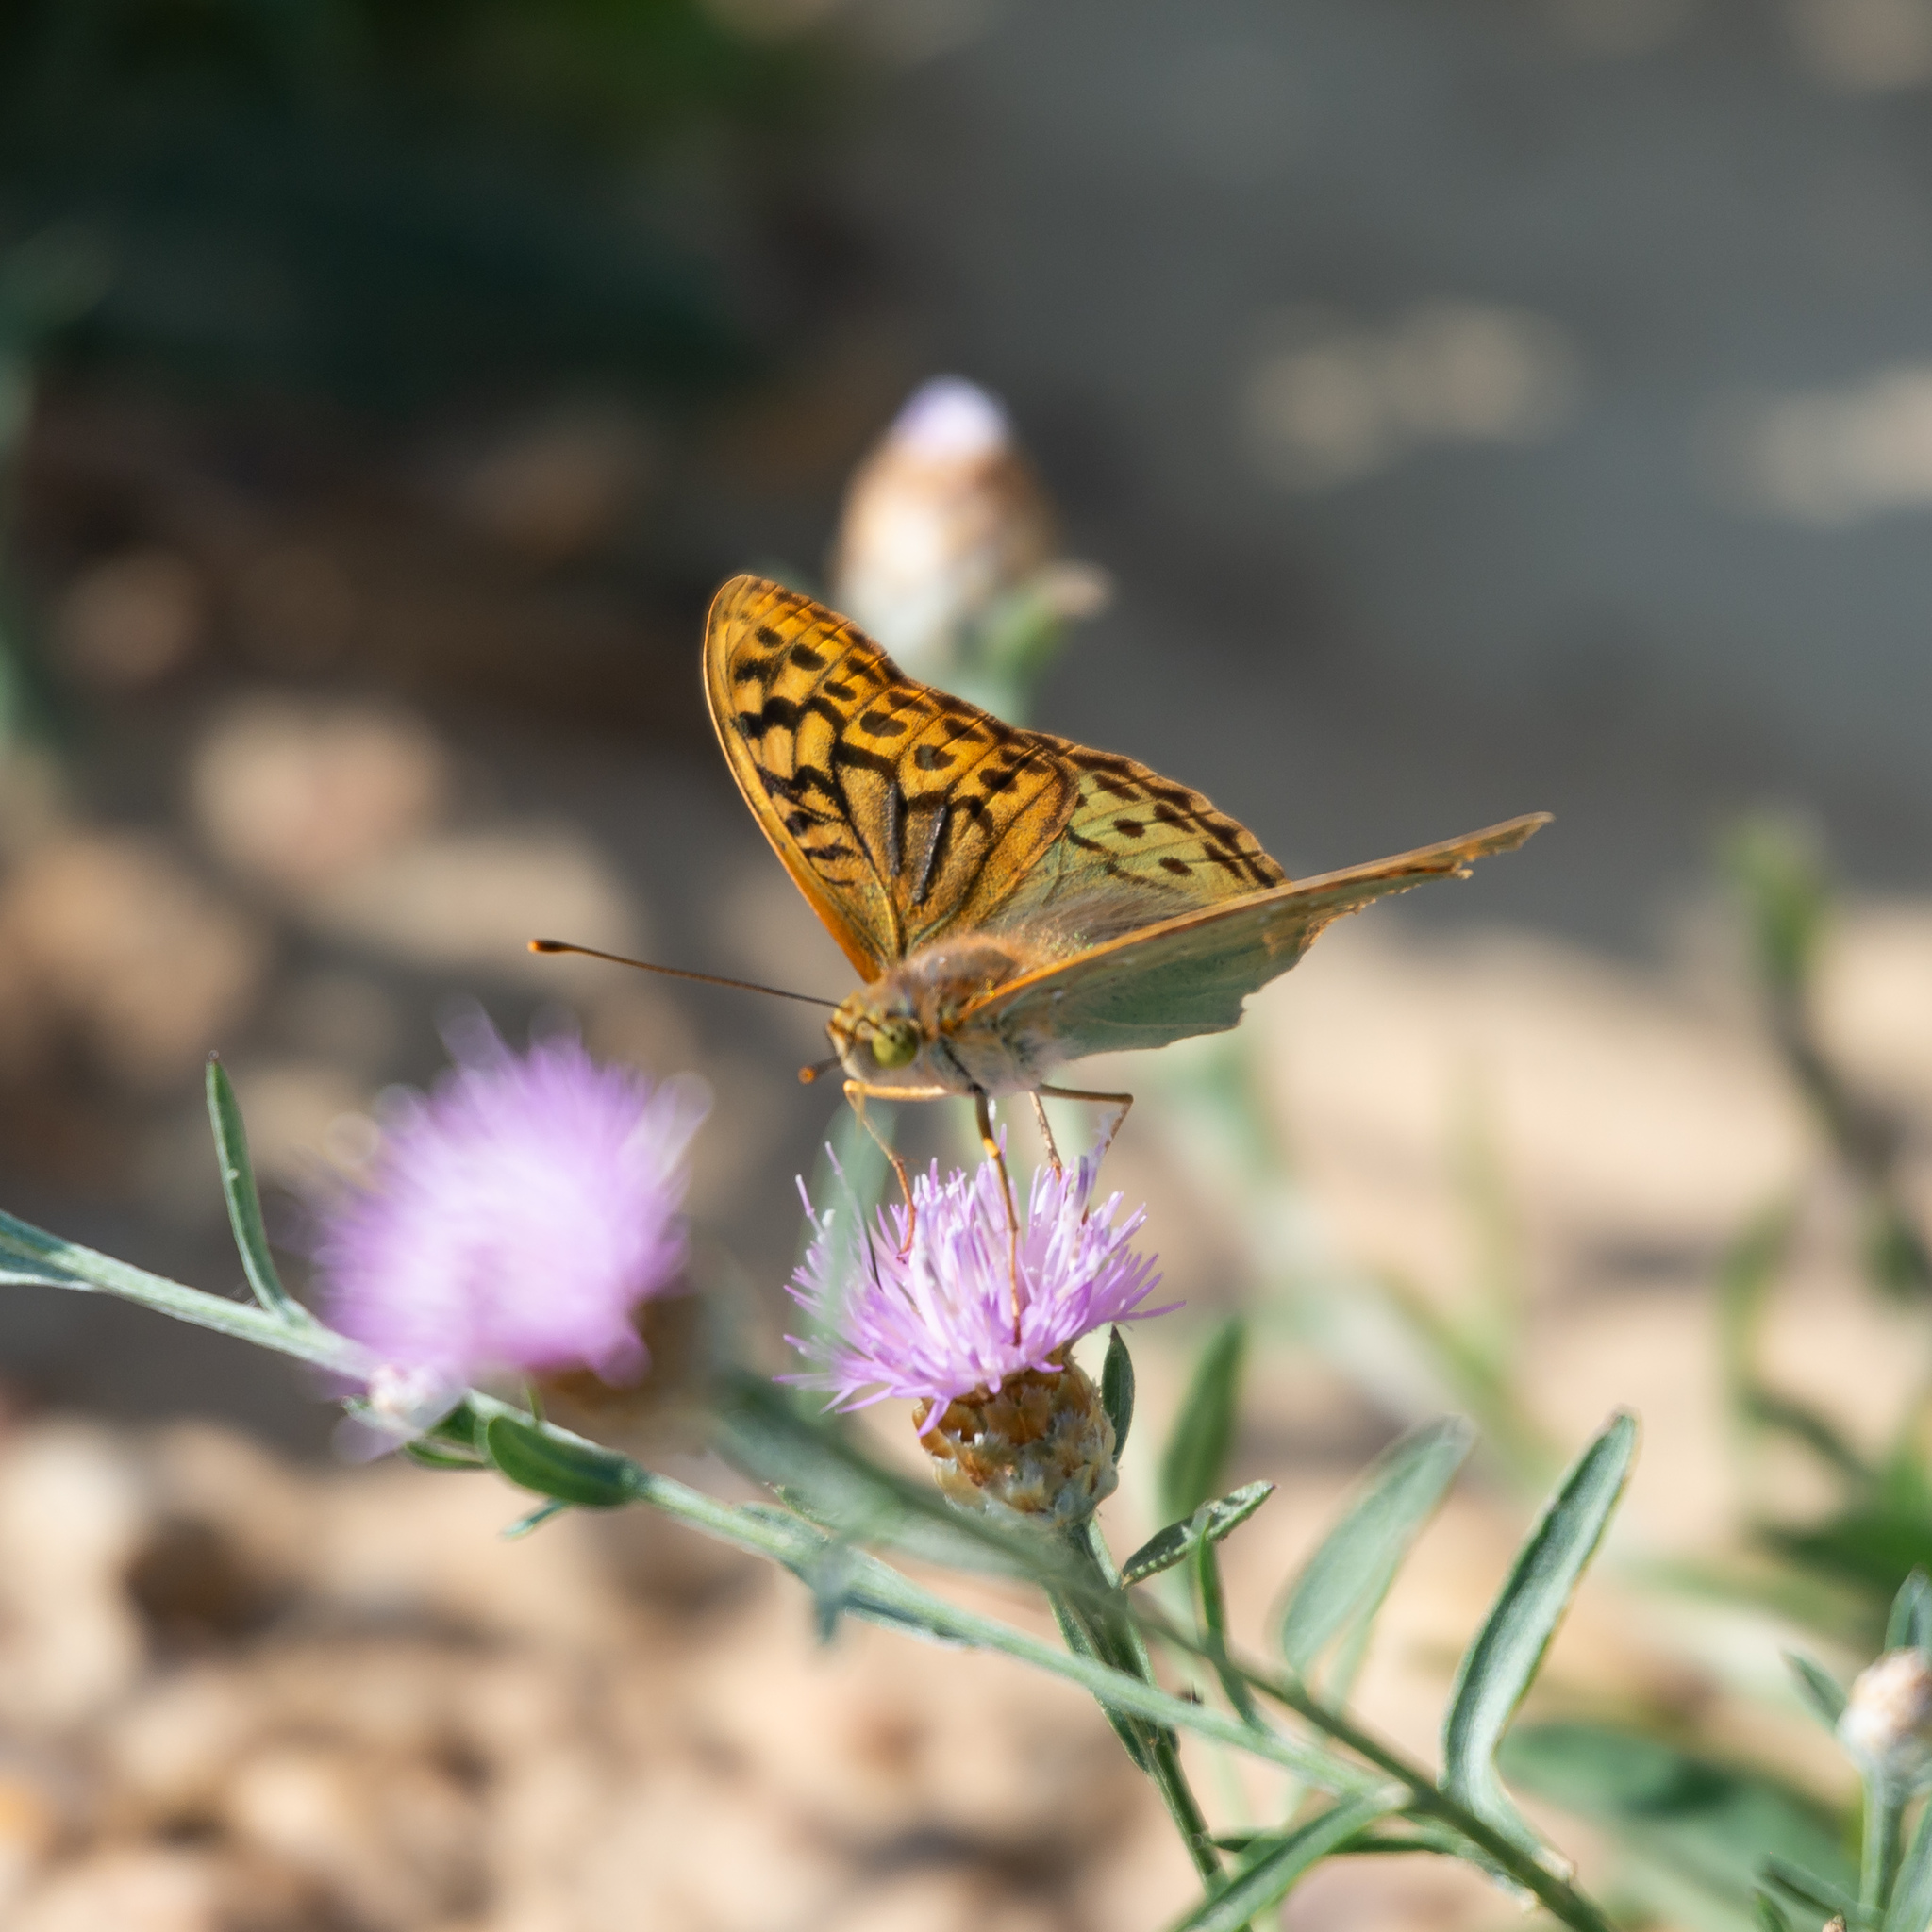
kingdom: Animalia
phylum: Arthropoda
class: Insecta
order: Lepidoptera
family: Nymphalidae
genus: Damora
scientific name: Damora pandora
